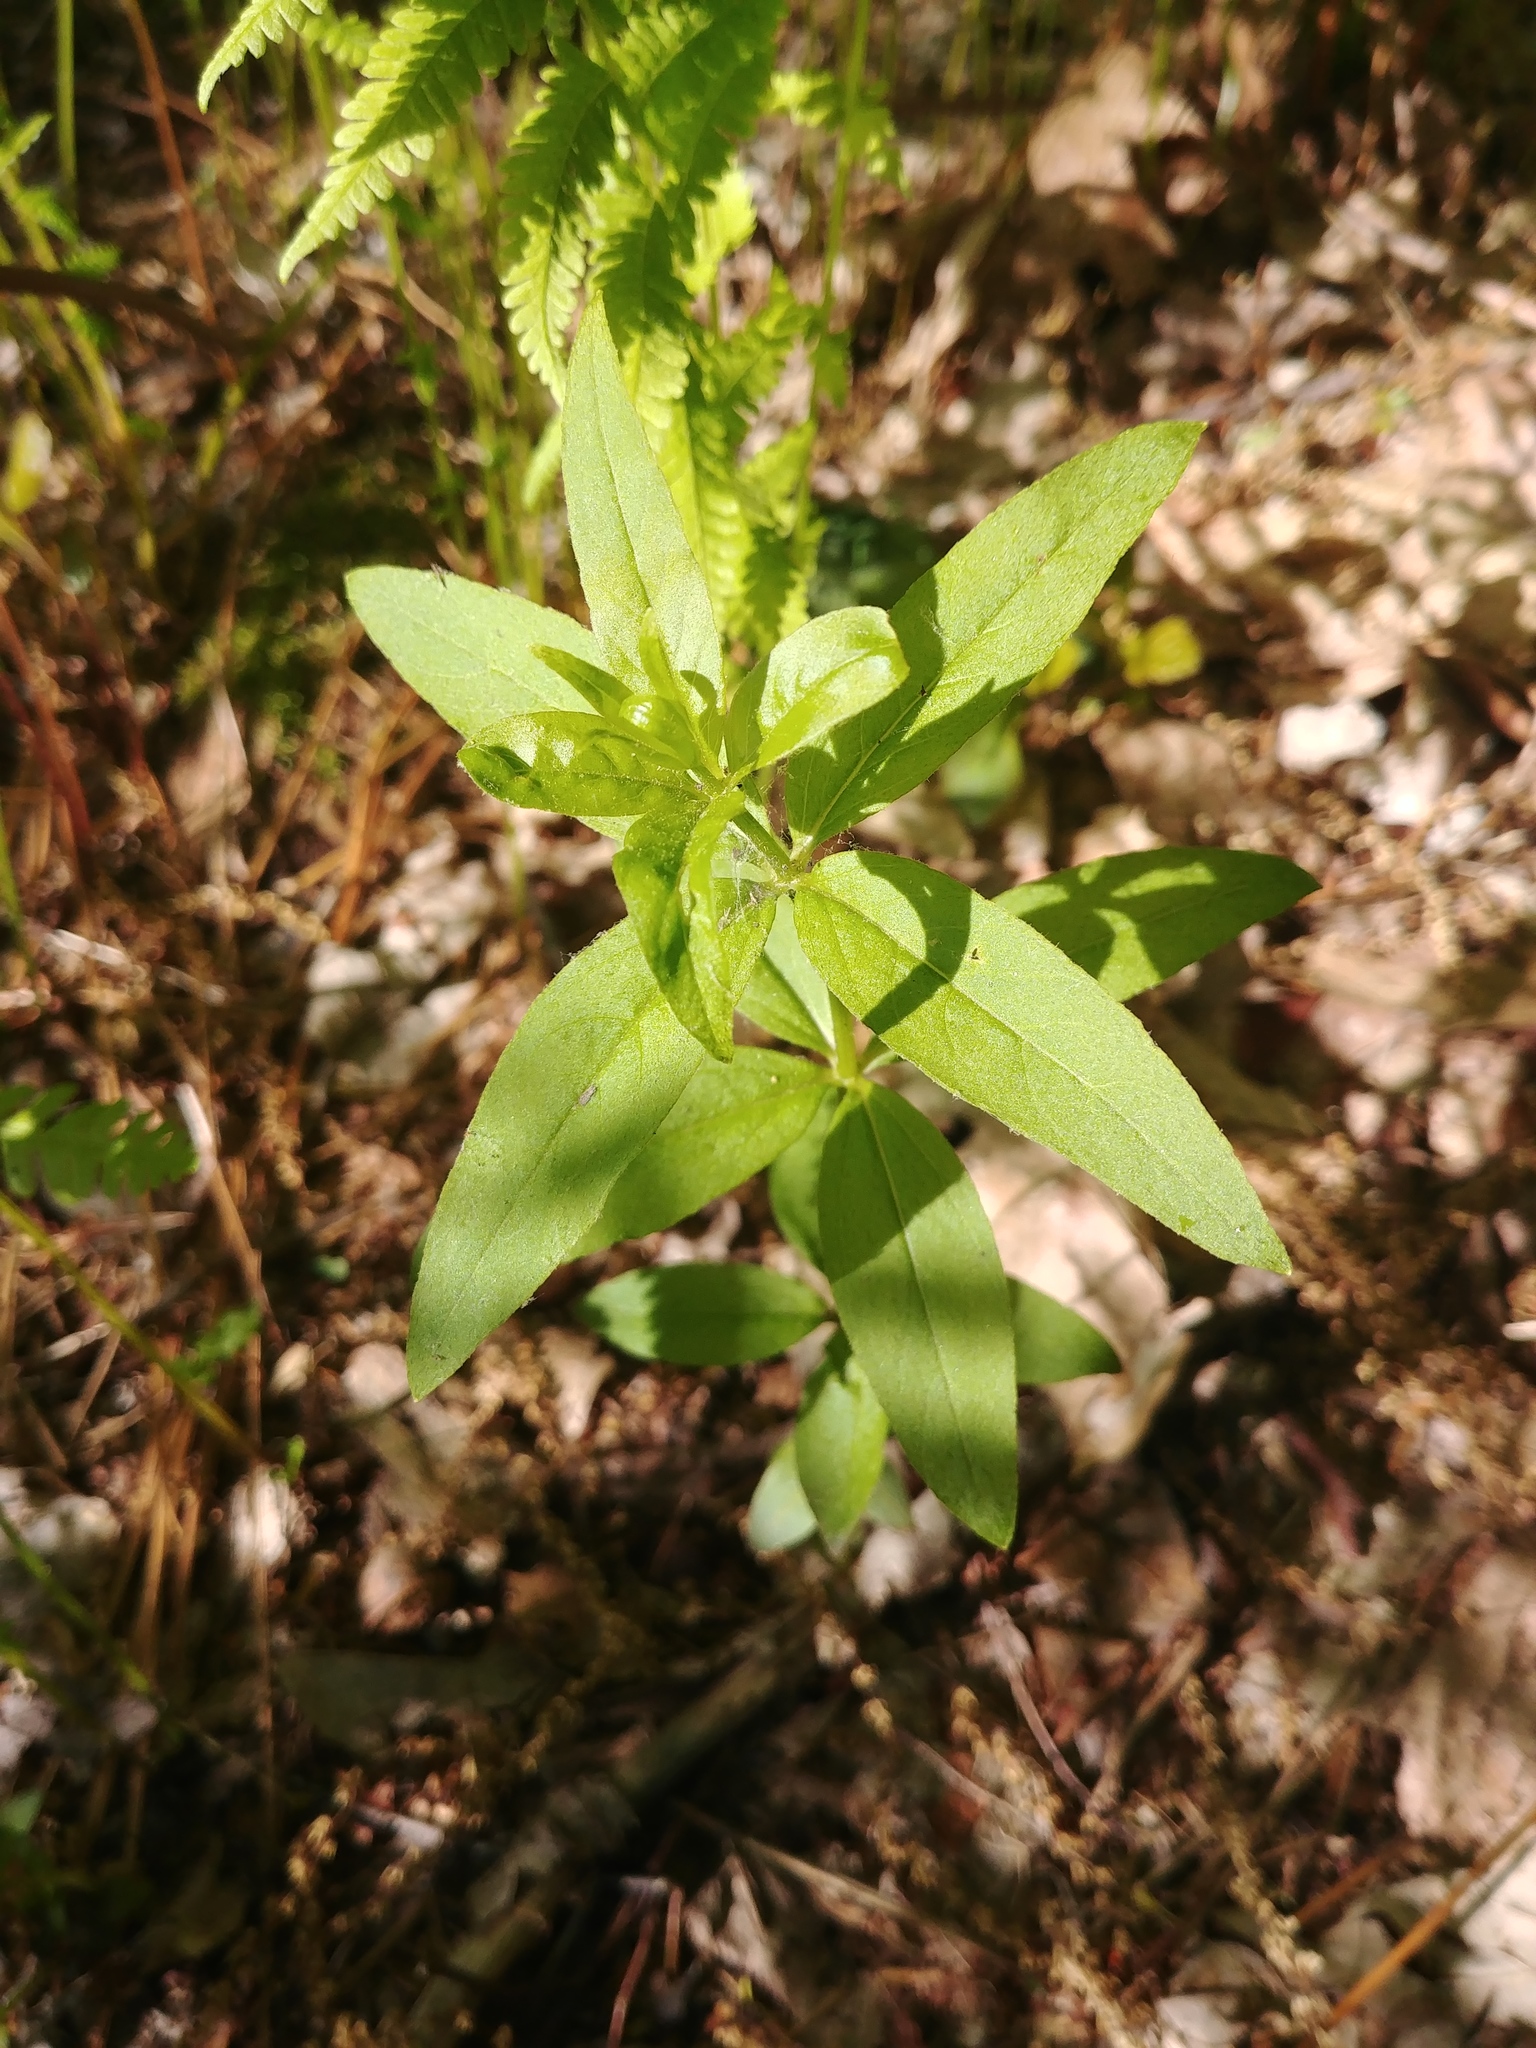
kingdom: Plantae
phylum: Tracheophyta
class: Magnoliopsida
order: Ericales
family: Primulaceae
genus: Lysimachia
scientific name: Lysimachia quadrifolia
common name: Whorled loosestrife
